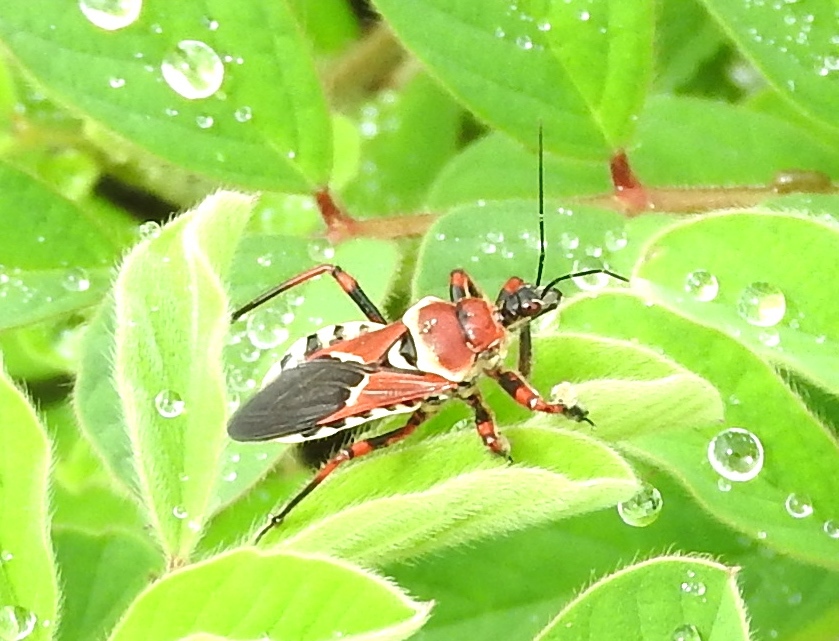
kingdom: Animalia
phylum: Arthropoda
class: Insecta
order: Hemiptera
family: Reduviidae
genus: Apiomerus
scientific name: Apiomerus flaviventris
